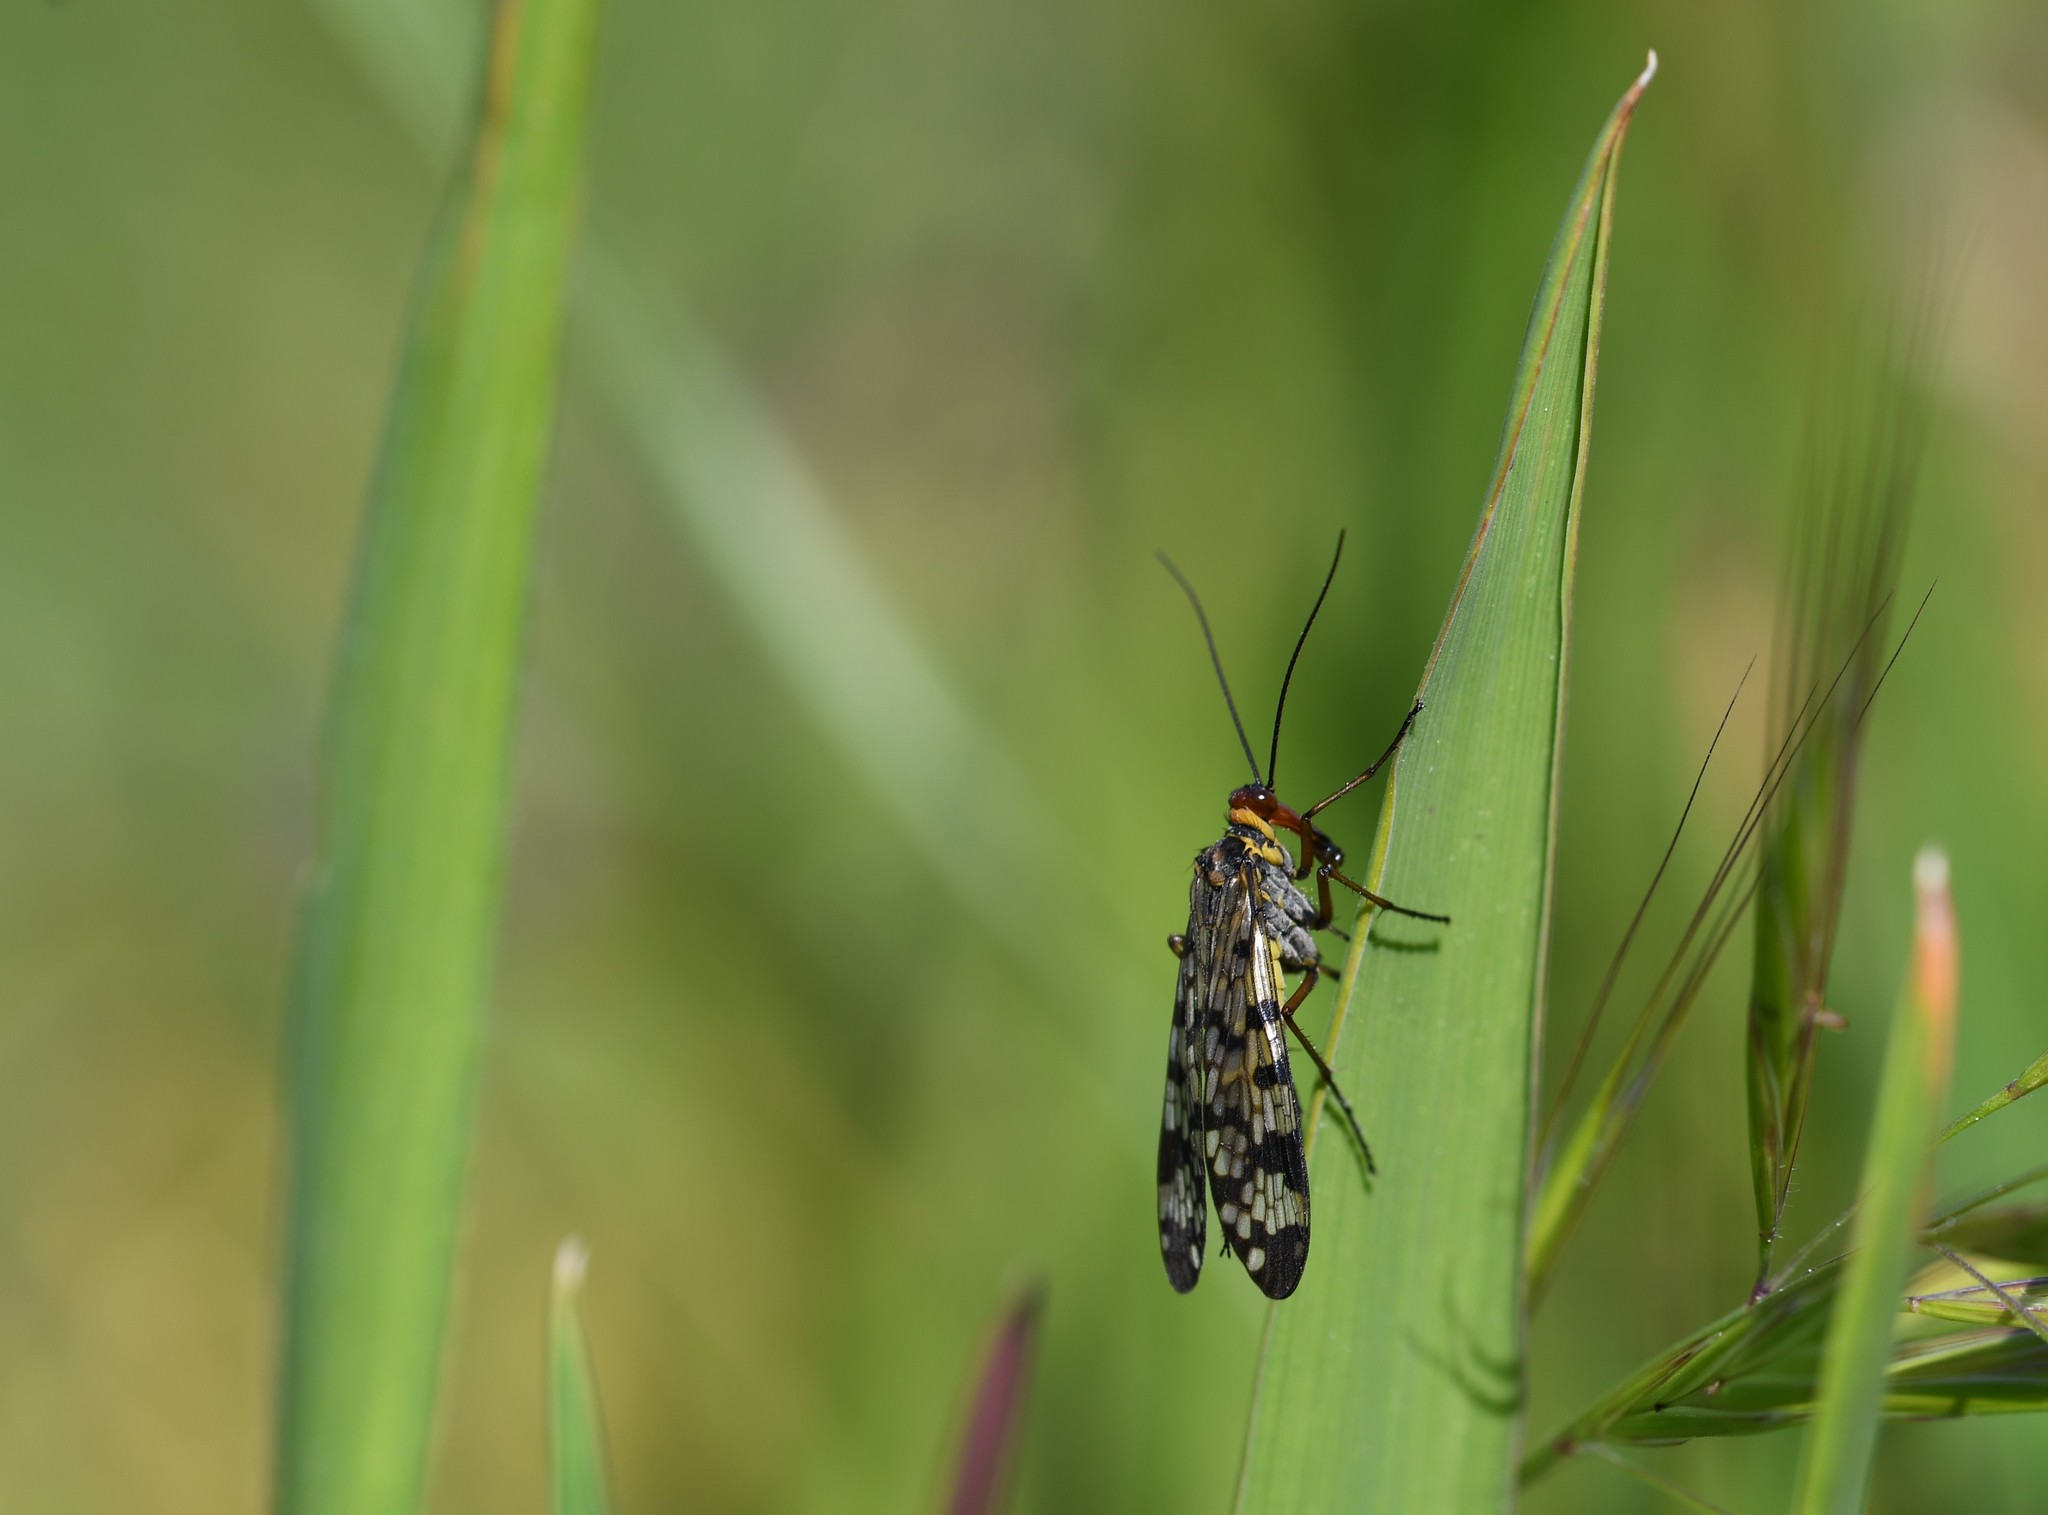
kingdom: Animalia
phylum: Arthropoda
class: Insecta
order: Mecoptera
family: Panorpidae
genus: Panorpa
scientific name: Panorpa meridionalis
